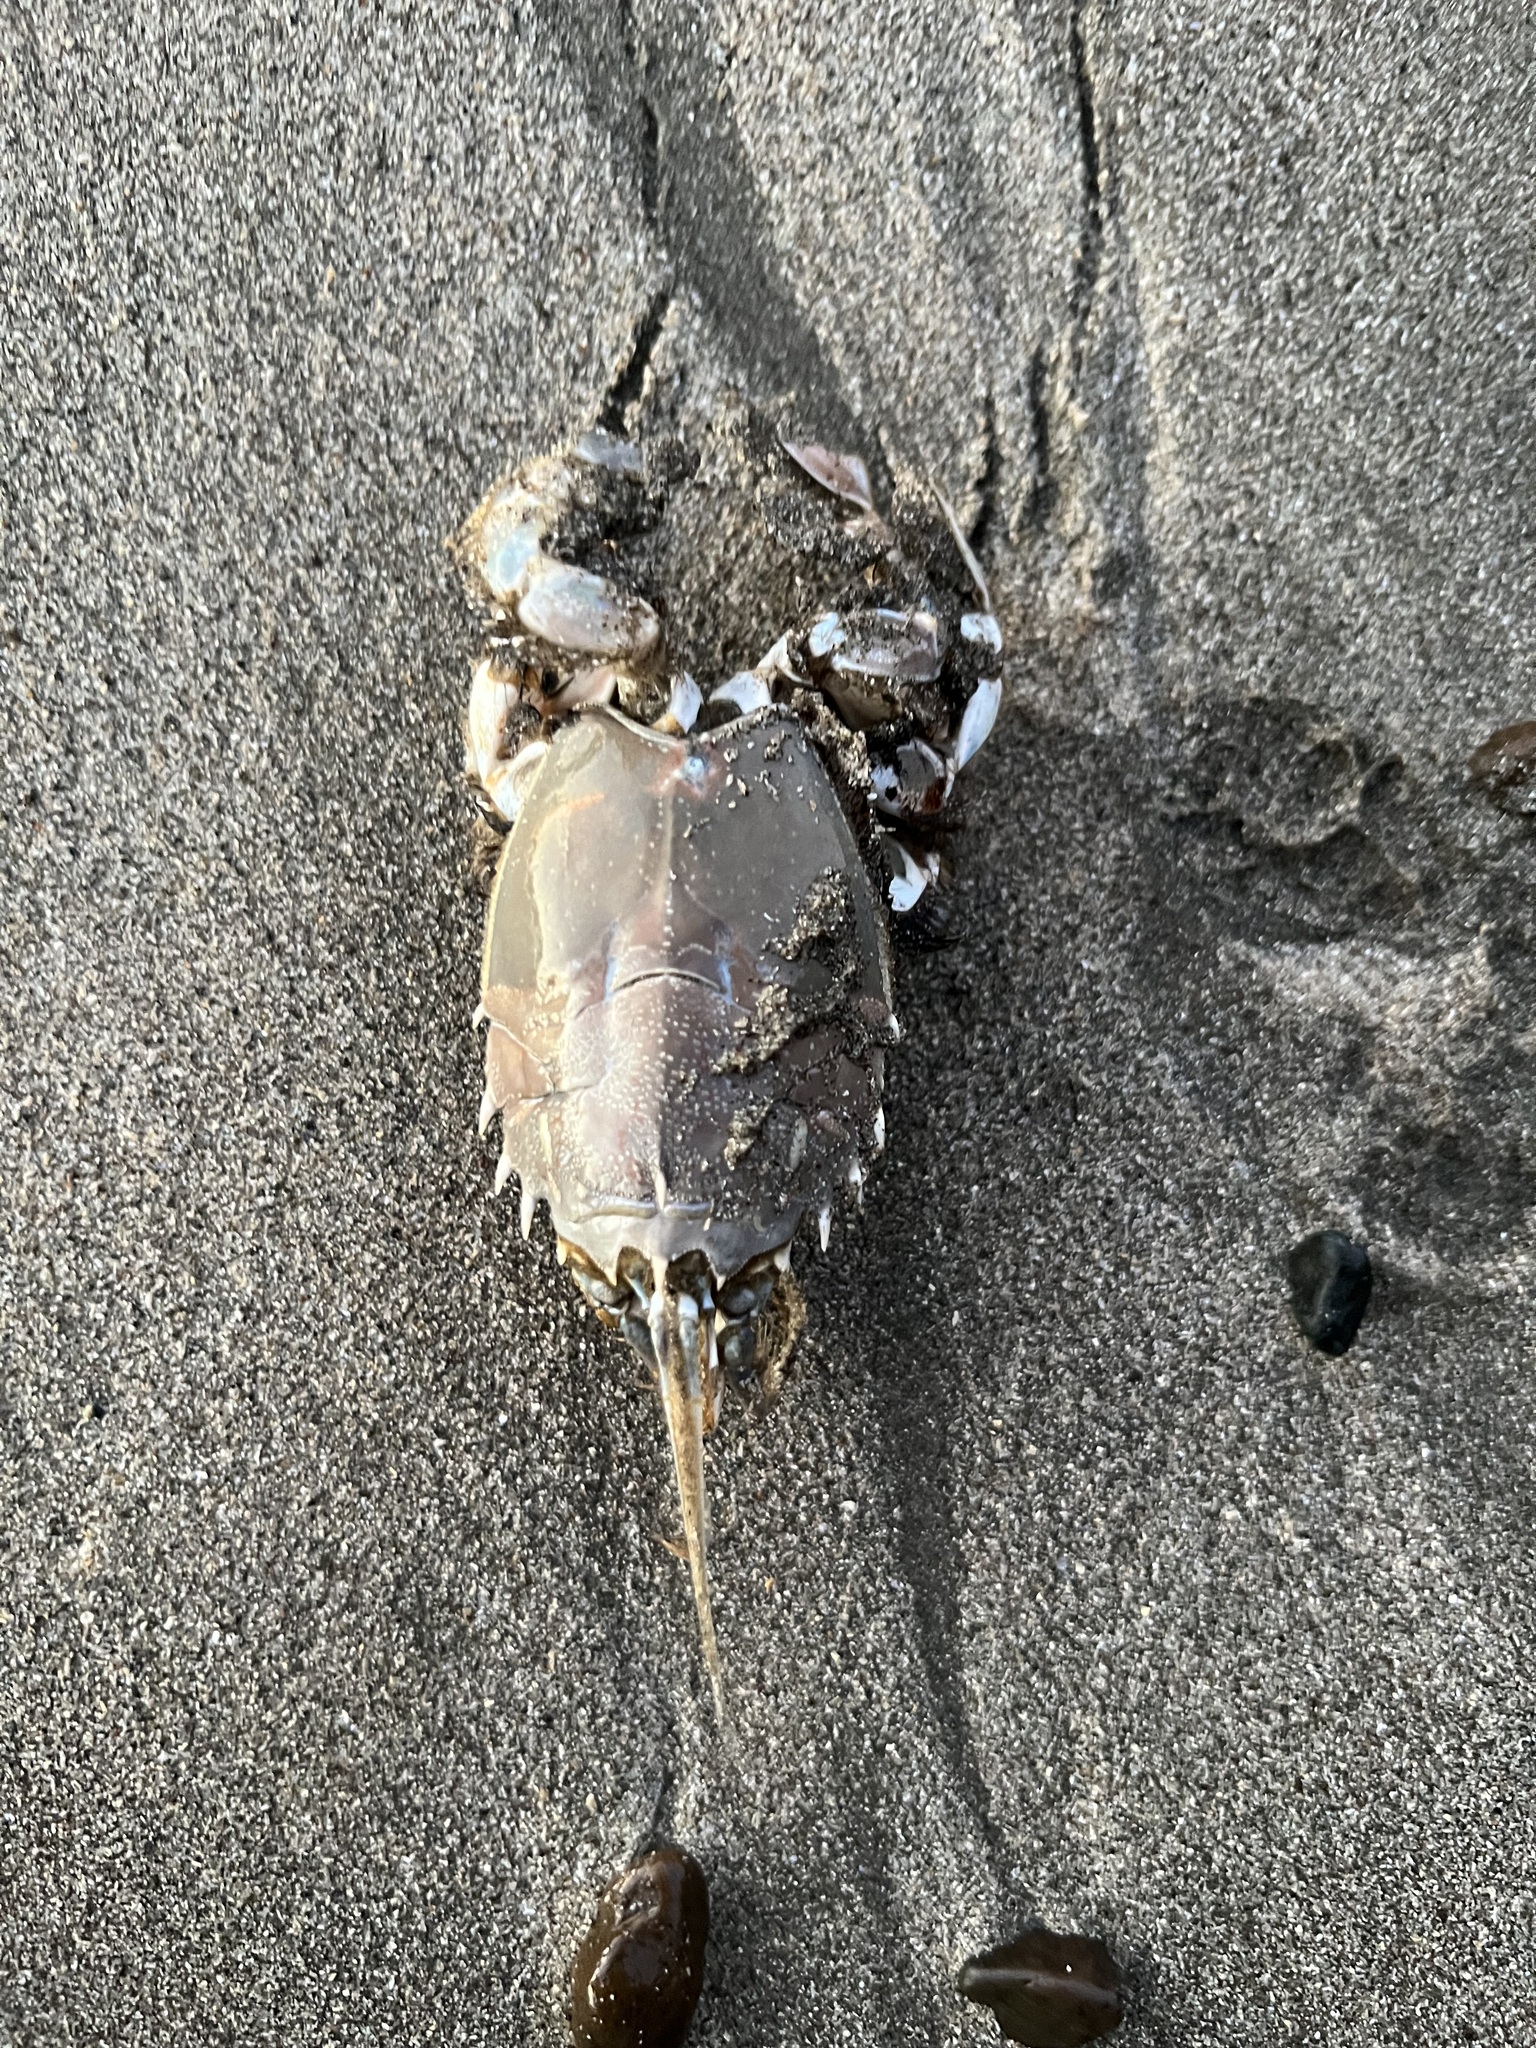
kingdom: Animalia
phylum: Arthropoda
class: Malacostraca
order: Decapoda
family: Blepharipodidae
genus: Blepharipoda
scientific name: Blepharipoda occidentalis
